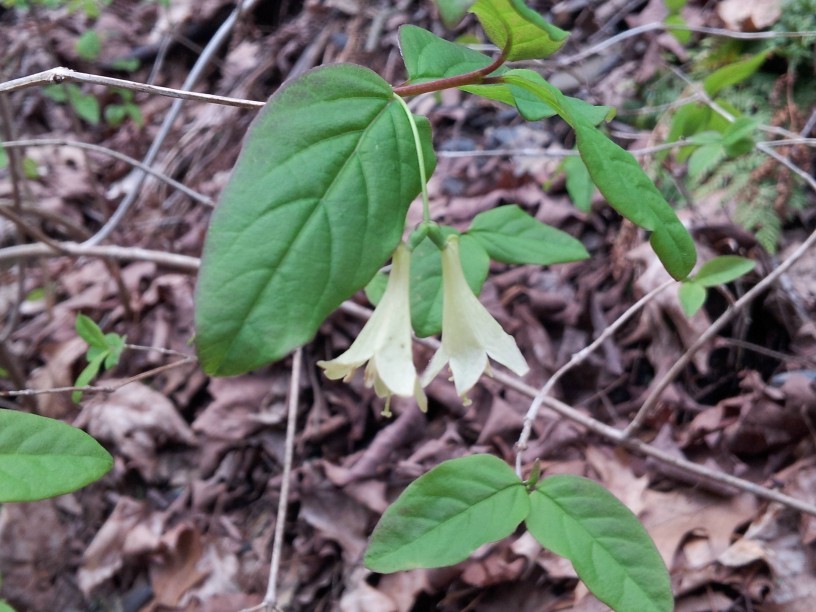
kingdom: Plantae
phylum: Tracheophyta
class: Magnoliopsida
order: Dipsacales
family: Caprifoliaceae
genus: Lonicera
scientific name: Lonicera canadensis
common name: American fly-honeysuckle
